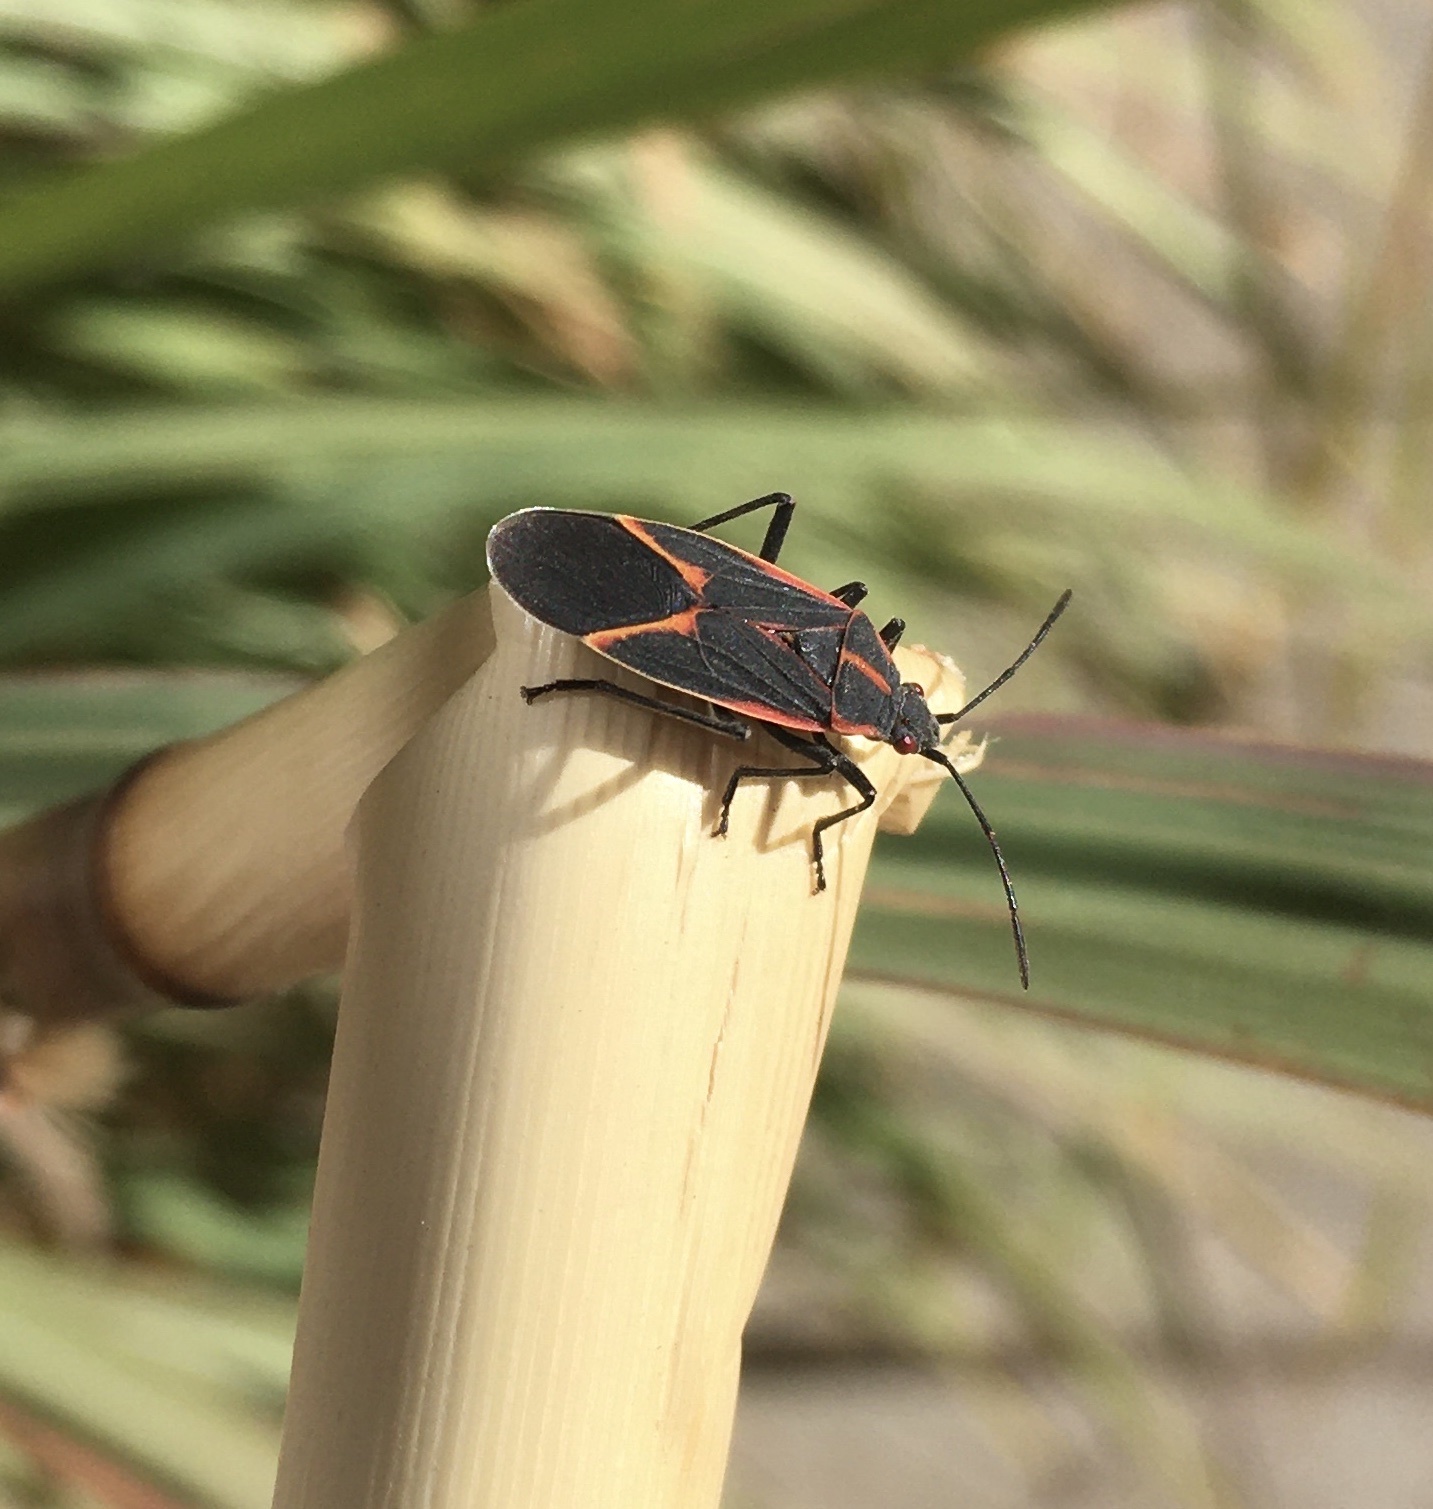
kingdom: Animalia
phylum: Arthropoda
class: Insecta
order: Hemiptera
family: Rhopalidae
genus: Boisea
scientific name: Boisea trivittata
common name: Boxelder bug
